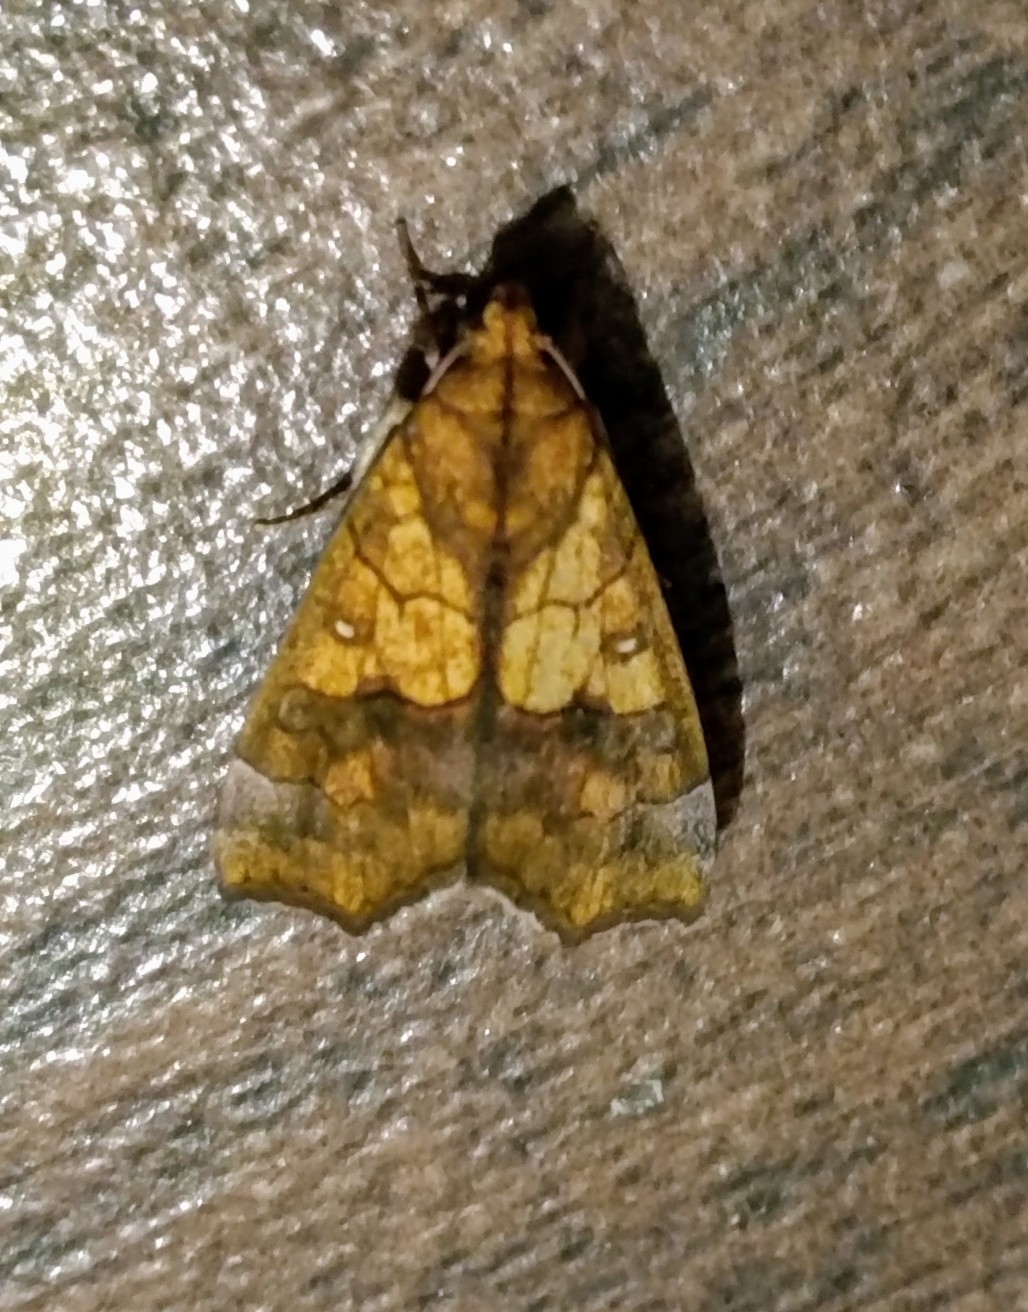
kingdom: Animalia
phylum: Arthropoda
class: Insecta
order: Lepidoptera
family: Erebidae
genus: Anomis
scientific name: Anomis flava
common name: Moth
